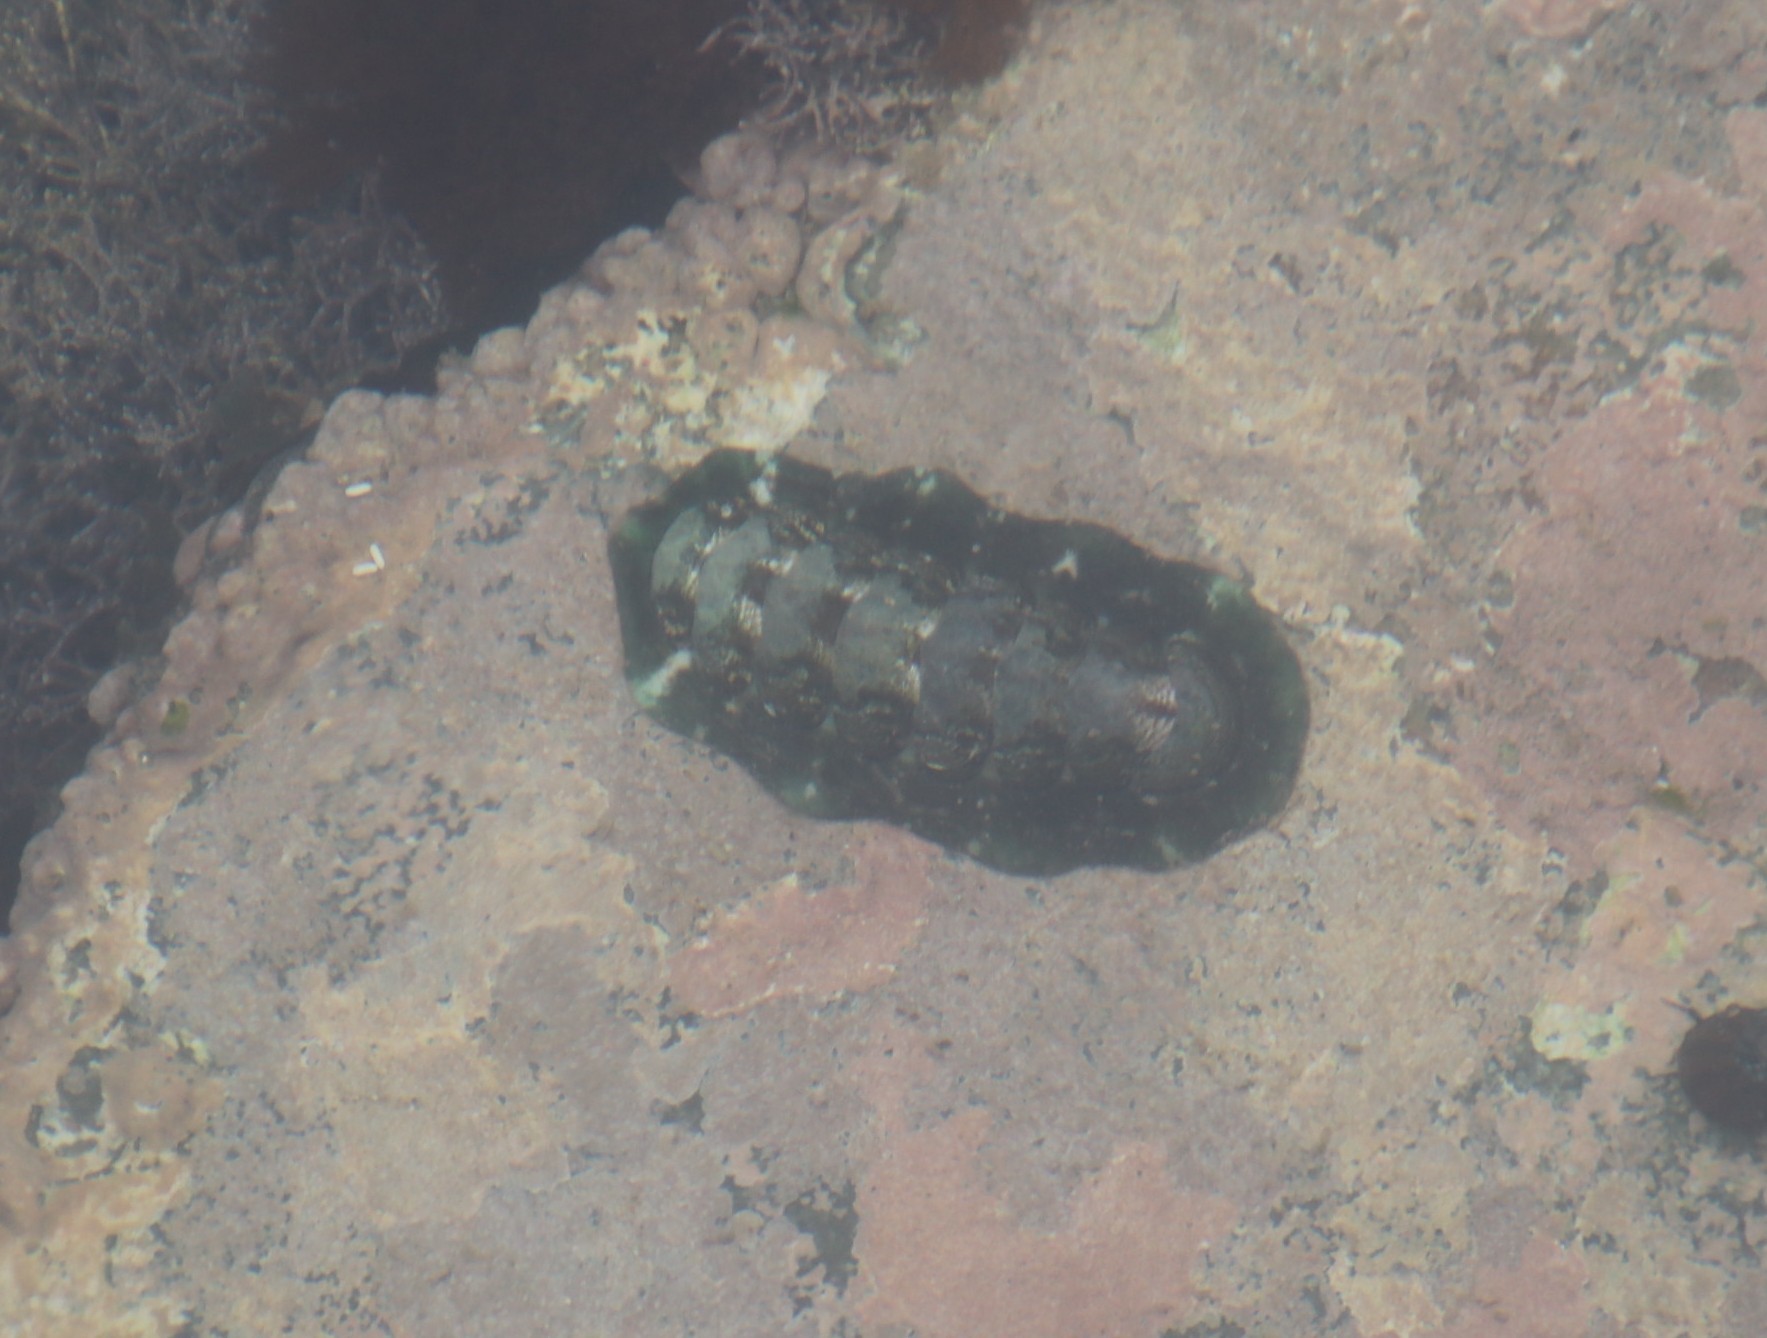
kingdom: Animalia
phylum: Mollusca
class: Polyplacophora
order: Chitonida
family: Chitonidae
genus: Onithochiton
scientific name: Onithochiton literatus
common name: Black chiton
